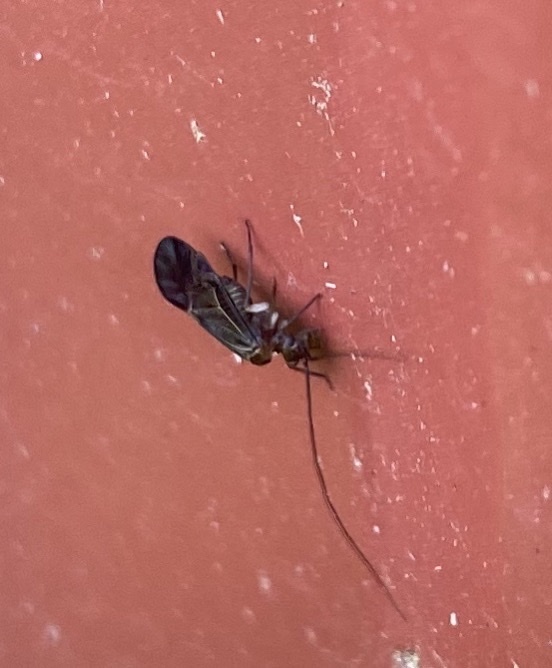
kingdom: Animalia
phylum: Arthropoda
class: Insecta
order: Psocodea
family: Psocidae
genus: Cerastipsocus
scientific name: Cerastipsocus venosus
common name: Tree cattle
